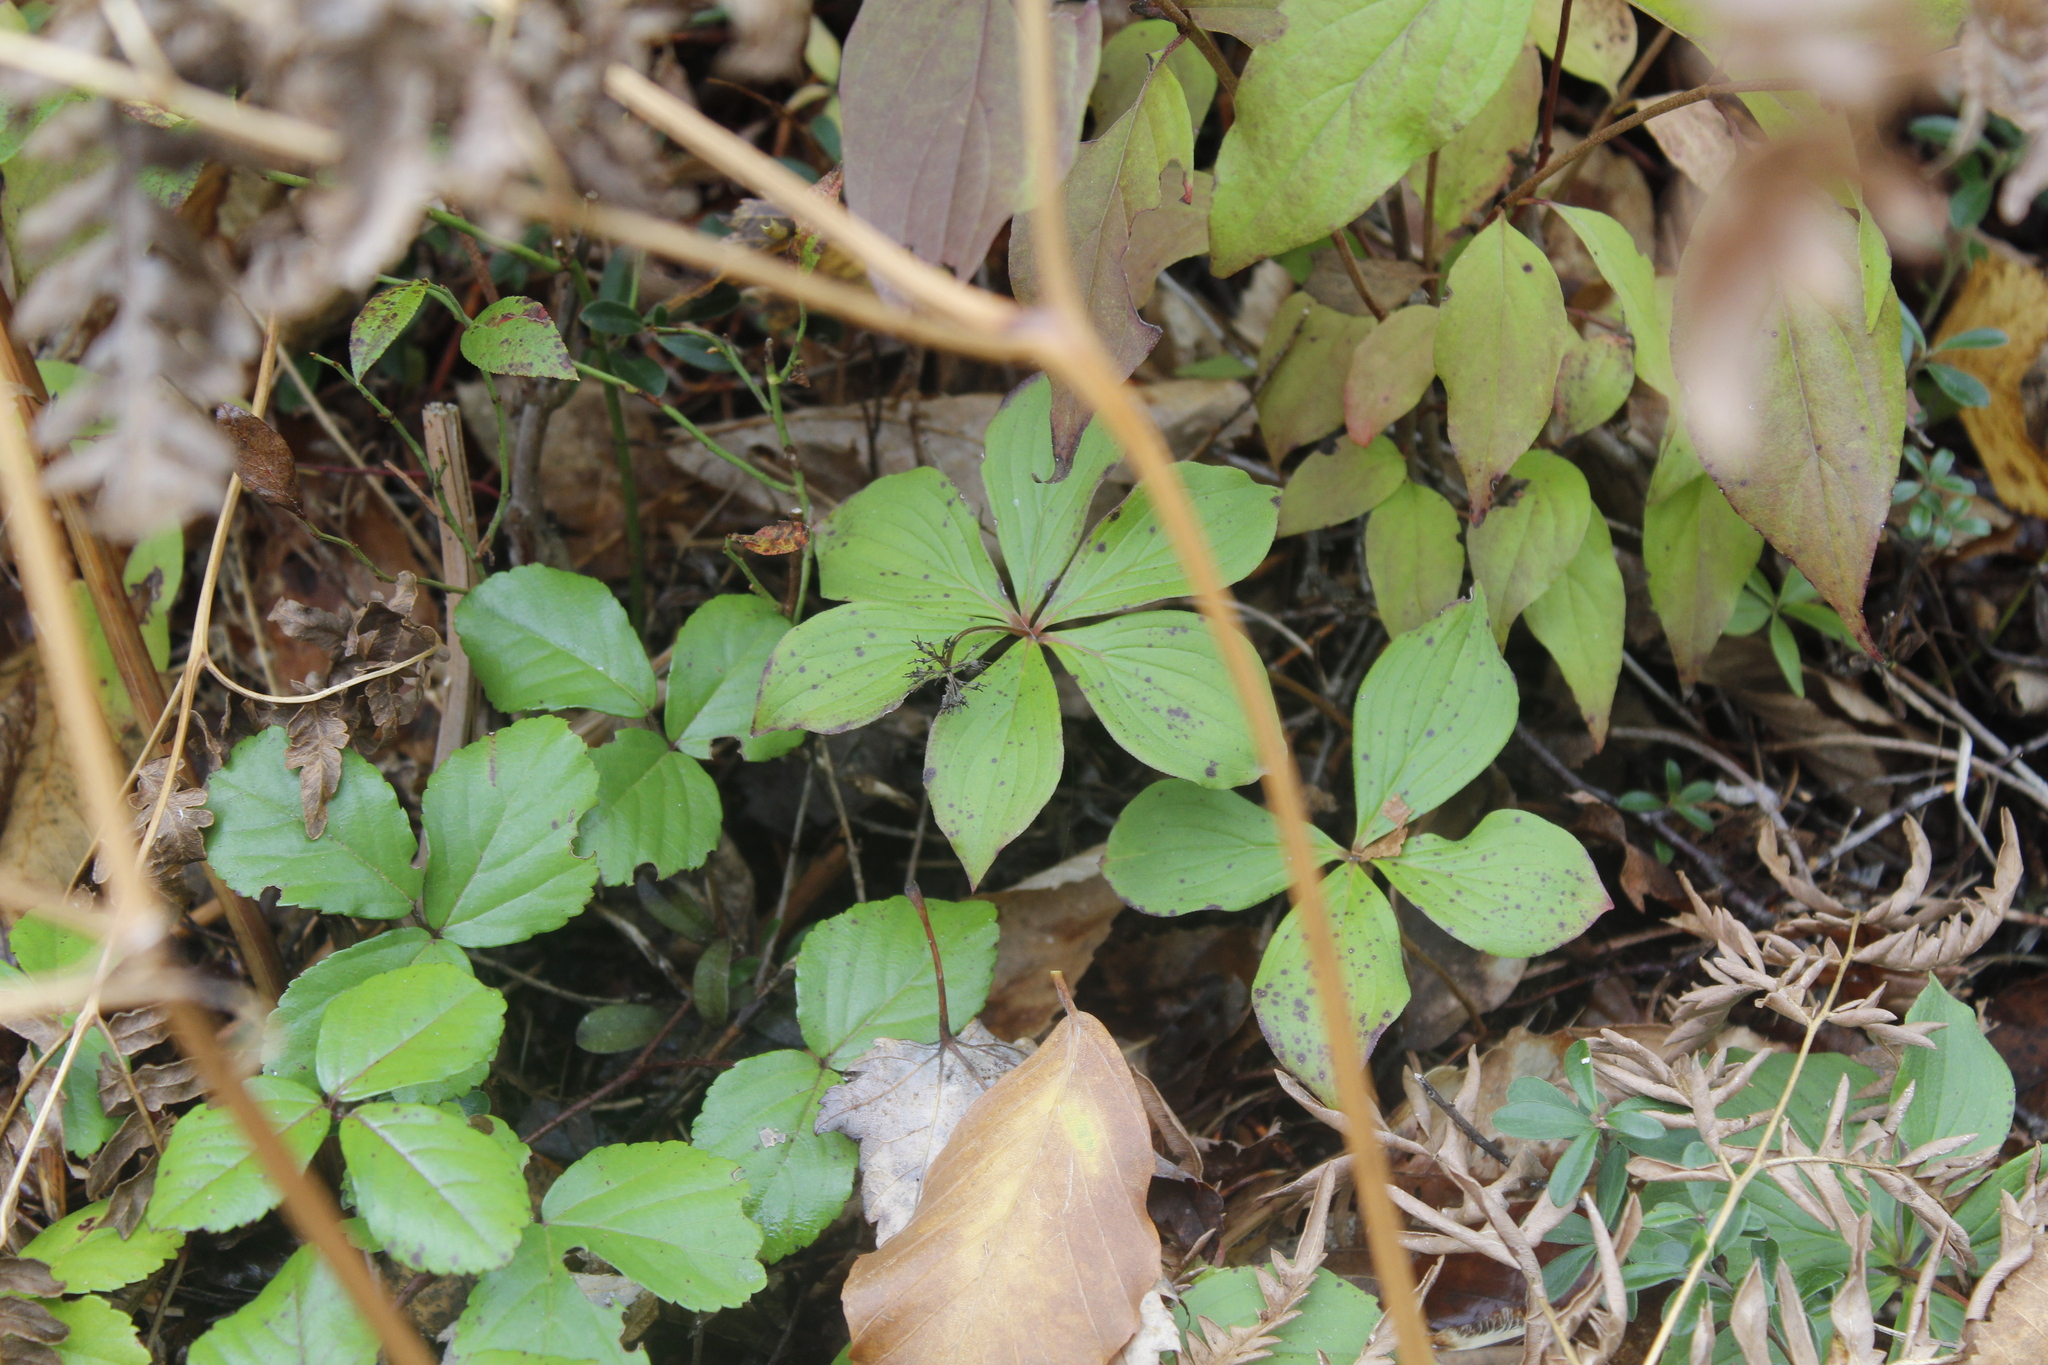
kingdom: Plantae
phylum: Tracheophyta
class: Magnoliopsida
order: Cornales
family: Cornaceae
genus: Cornus
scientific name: Cornus canadensis
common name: Creeping dogwood
